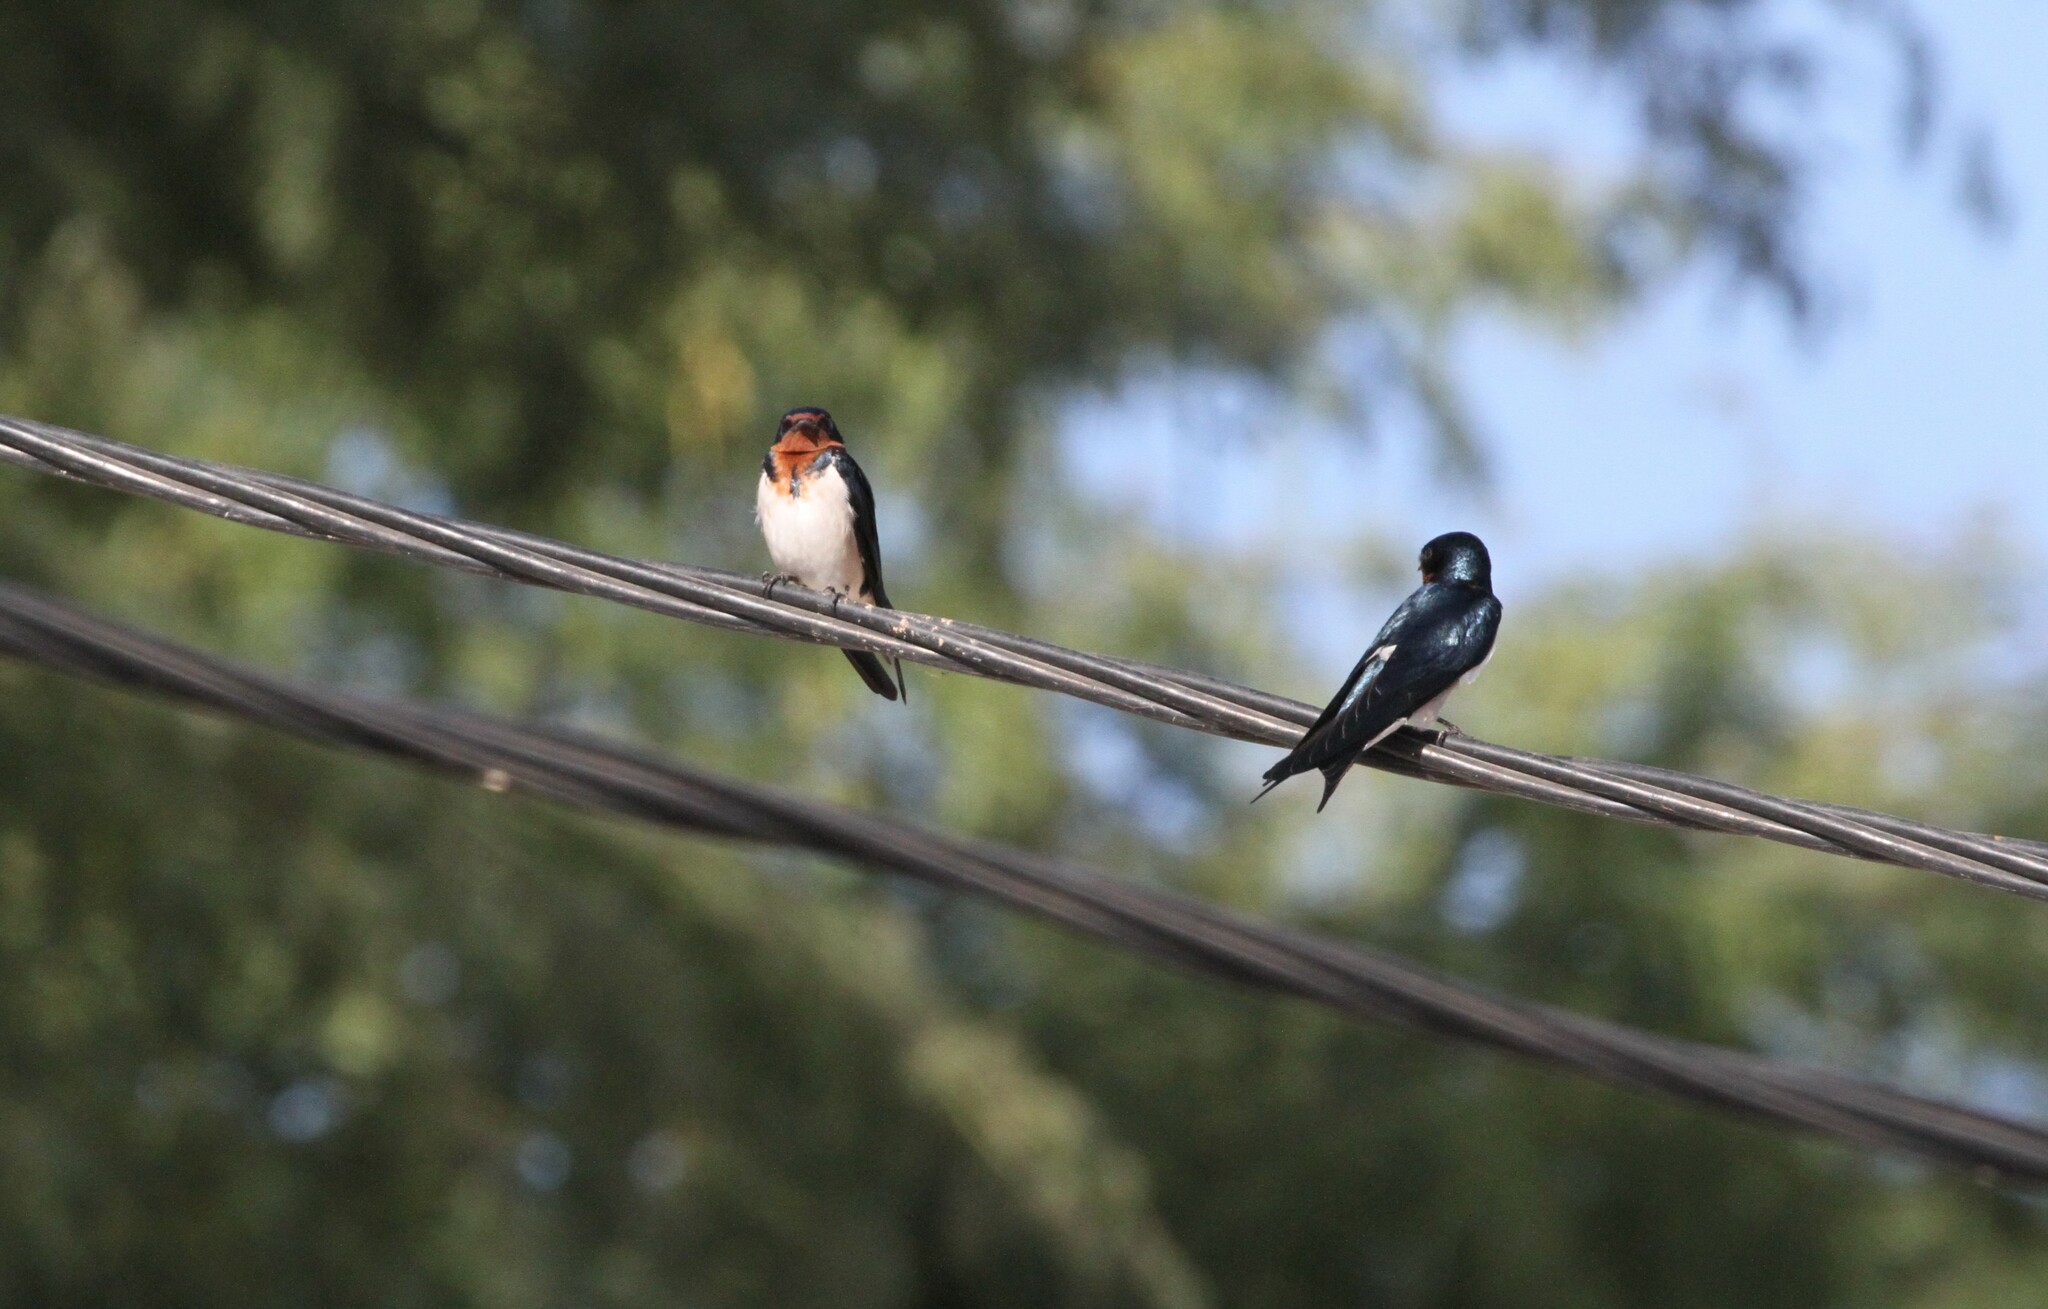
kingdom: Animalia
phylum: Chordata
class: Aves
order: Passeriformes
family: Hirundinidae
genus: Hirundo
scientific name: Hirundo lucida
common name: Red-chested swallow
